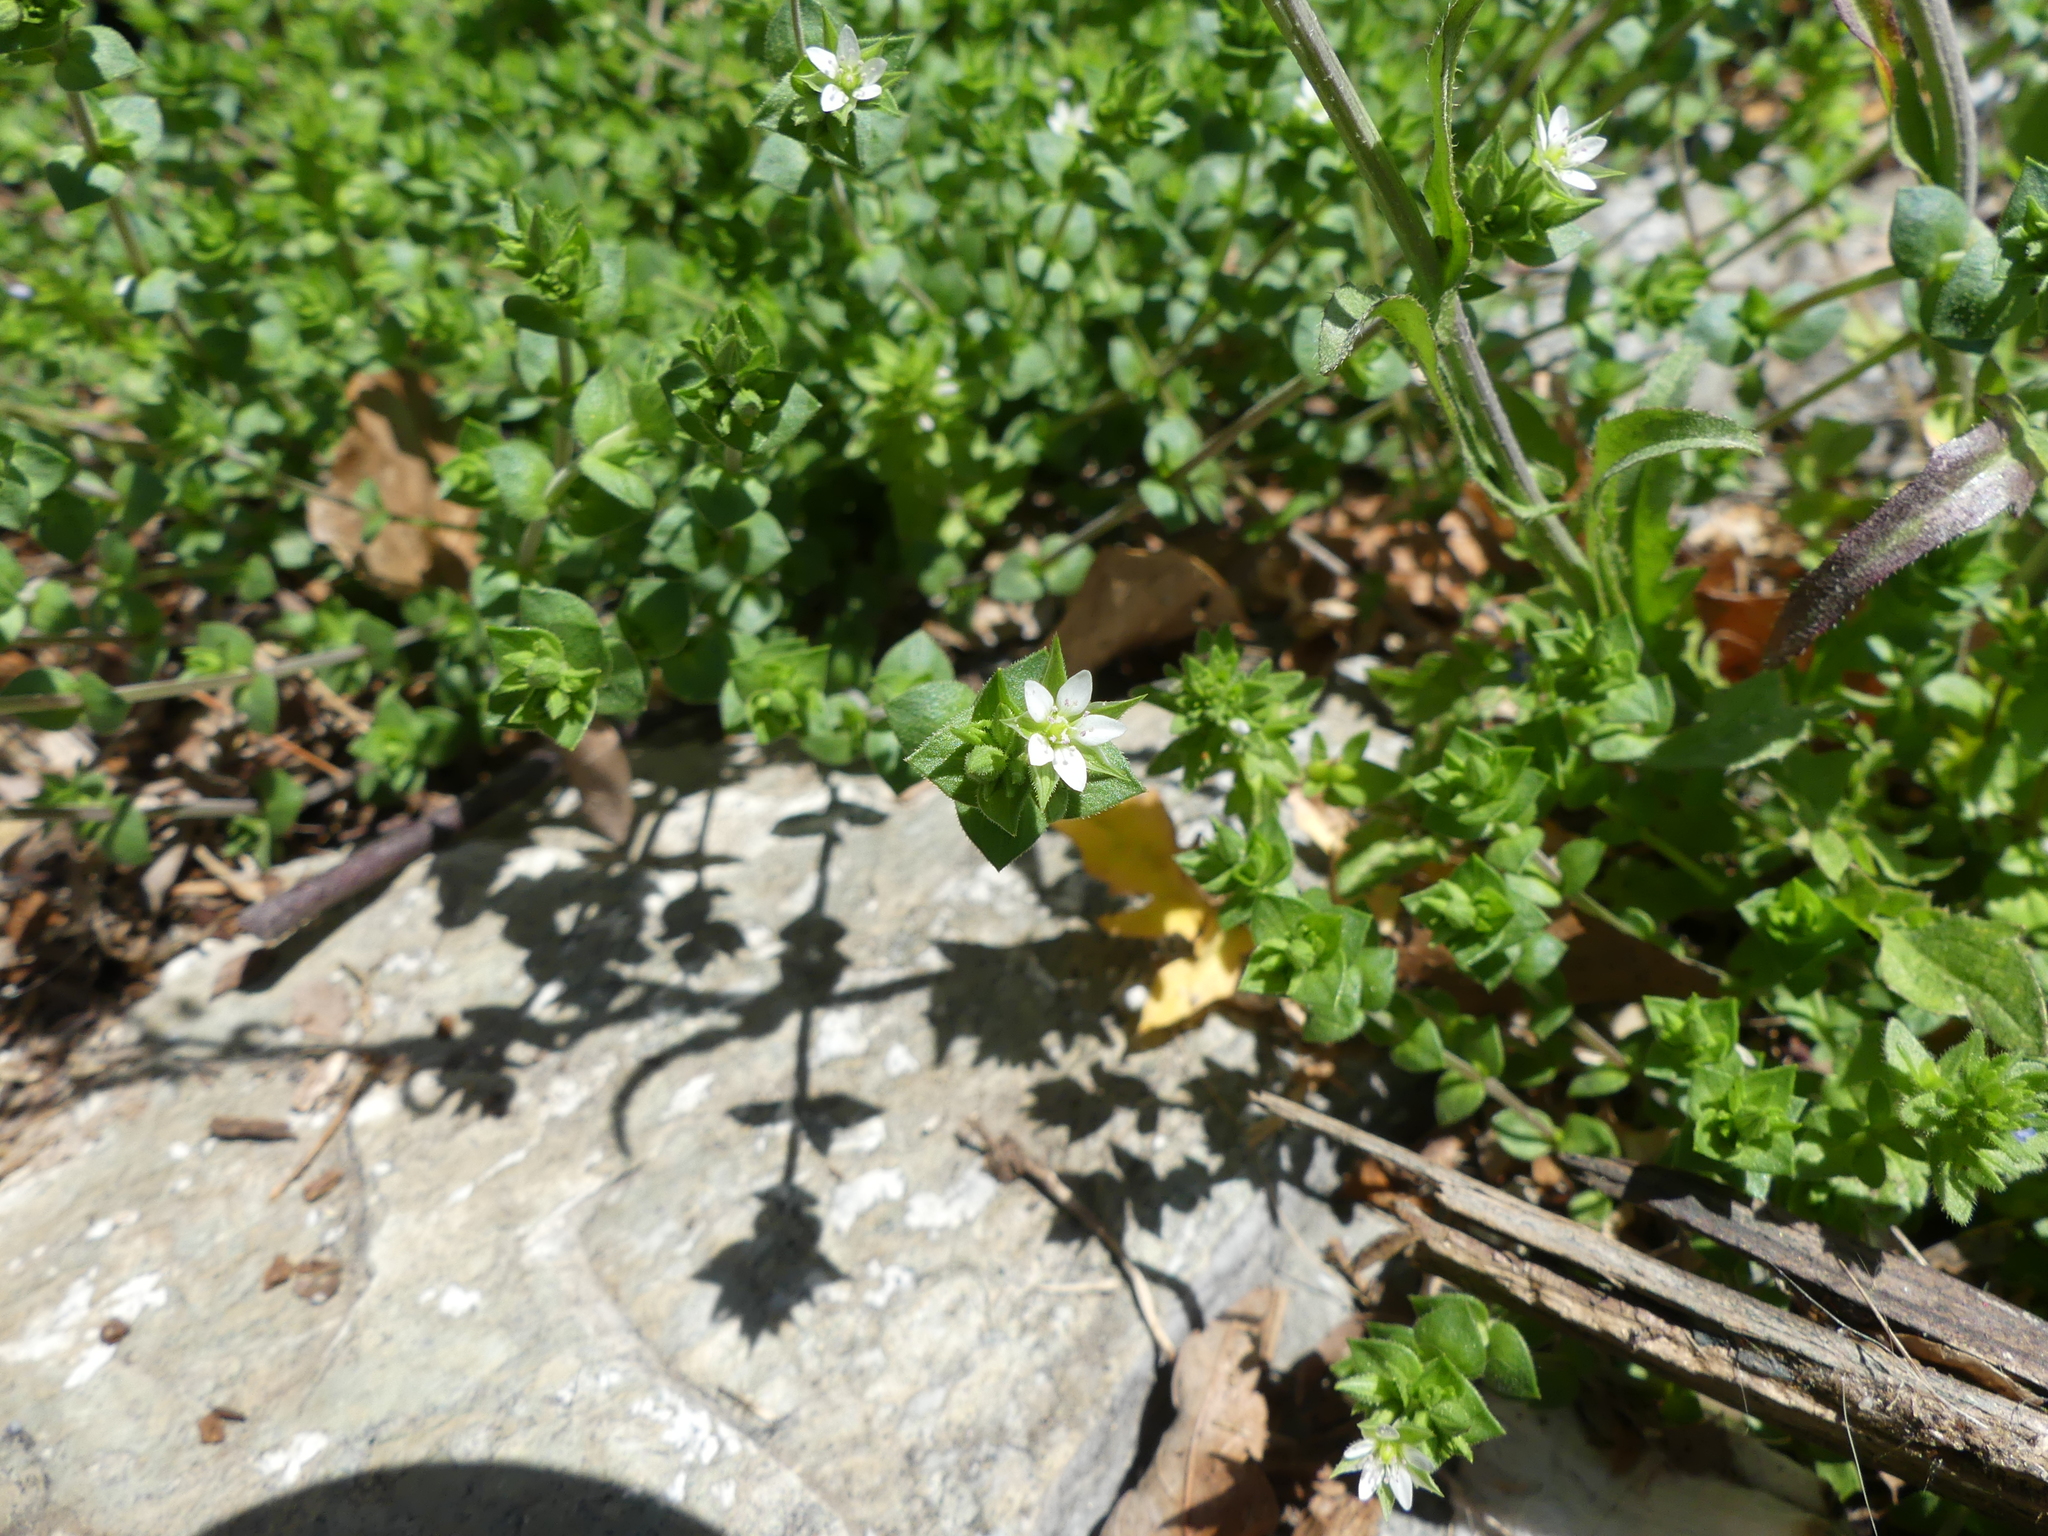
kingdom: Plantae
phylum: Tracheophyta
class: Magnoliopsida
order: Caryophyllales
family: Caryophyllaceae
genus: Arenaria
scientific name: Arenaria serpyllifolia
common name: Thyme-leaved sandwort
